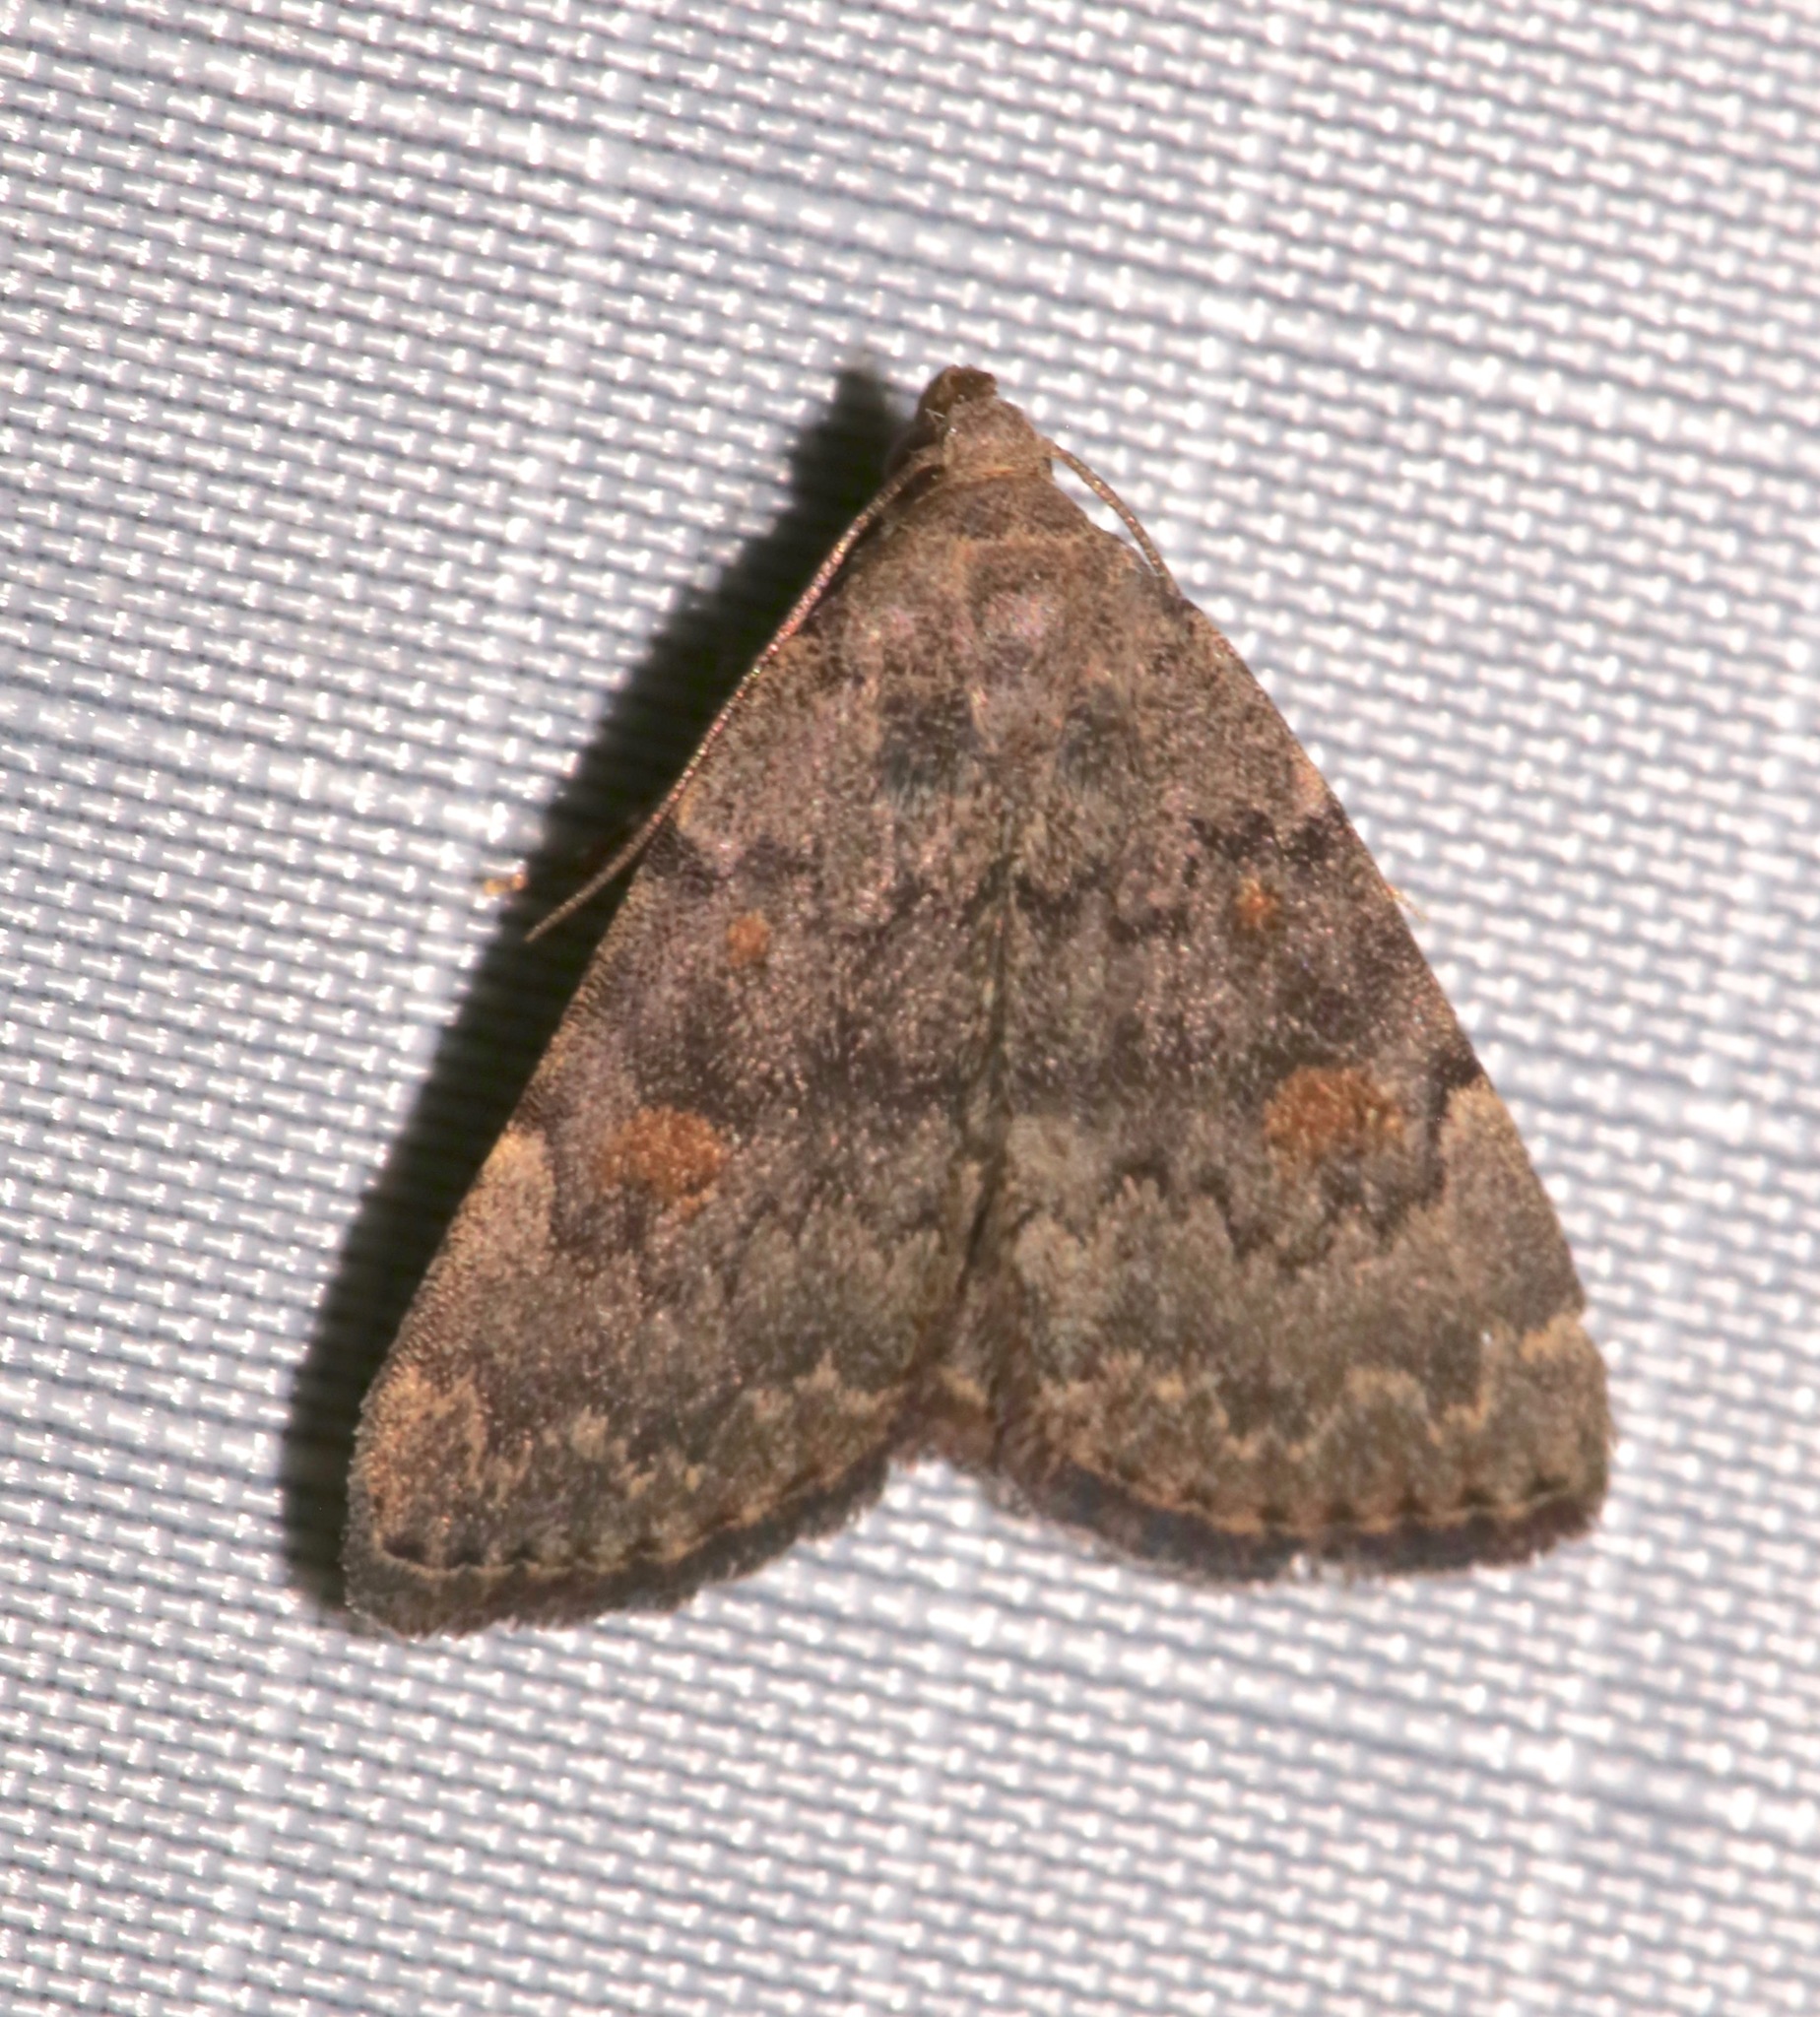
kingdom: Animalia
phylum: Arthropoda
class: Insecta
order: Lepidoptera
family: Erebidae
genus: Idia
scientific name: Idia aemula
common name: Common idia moth
